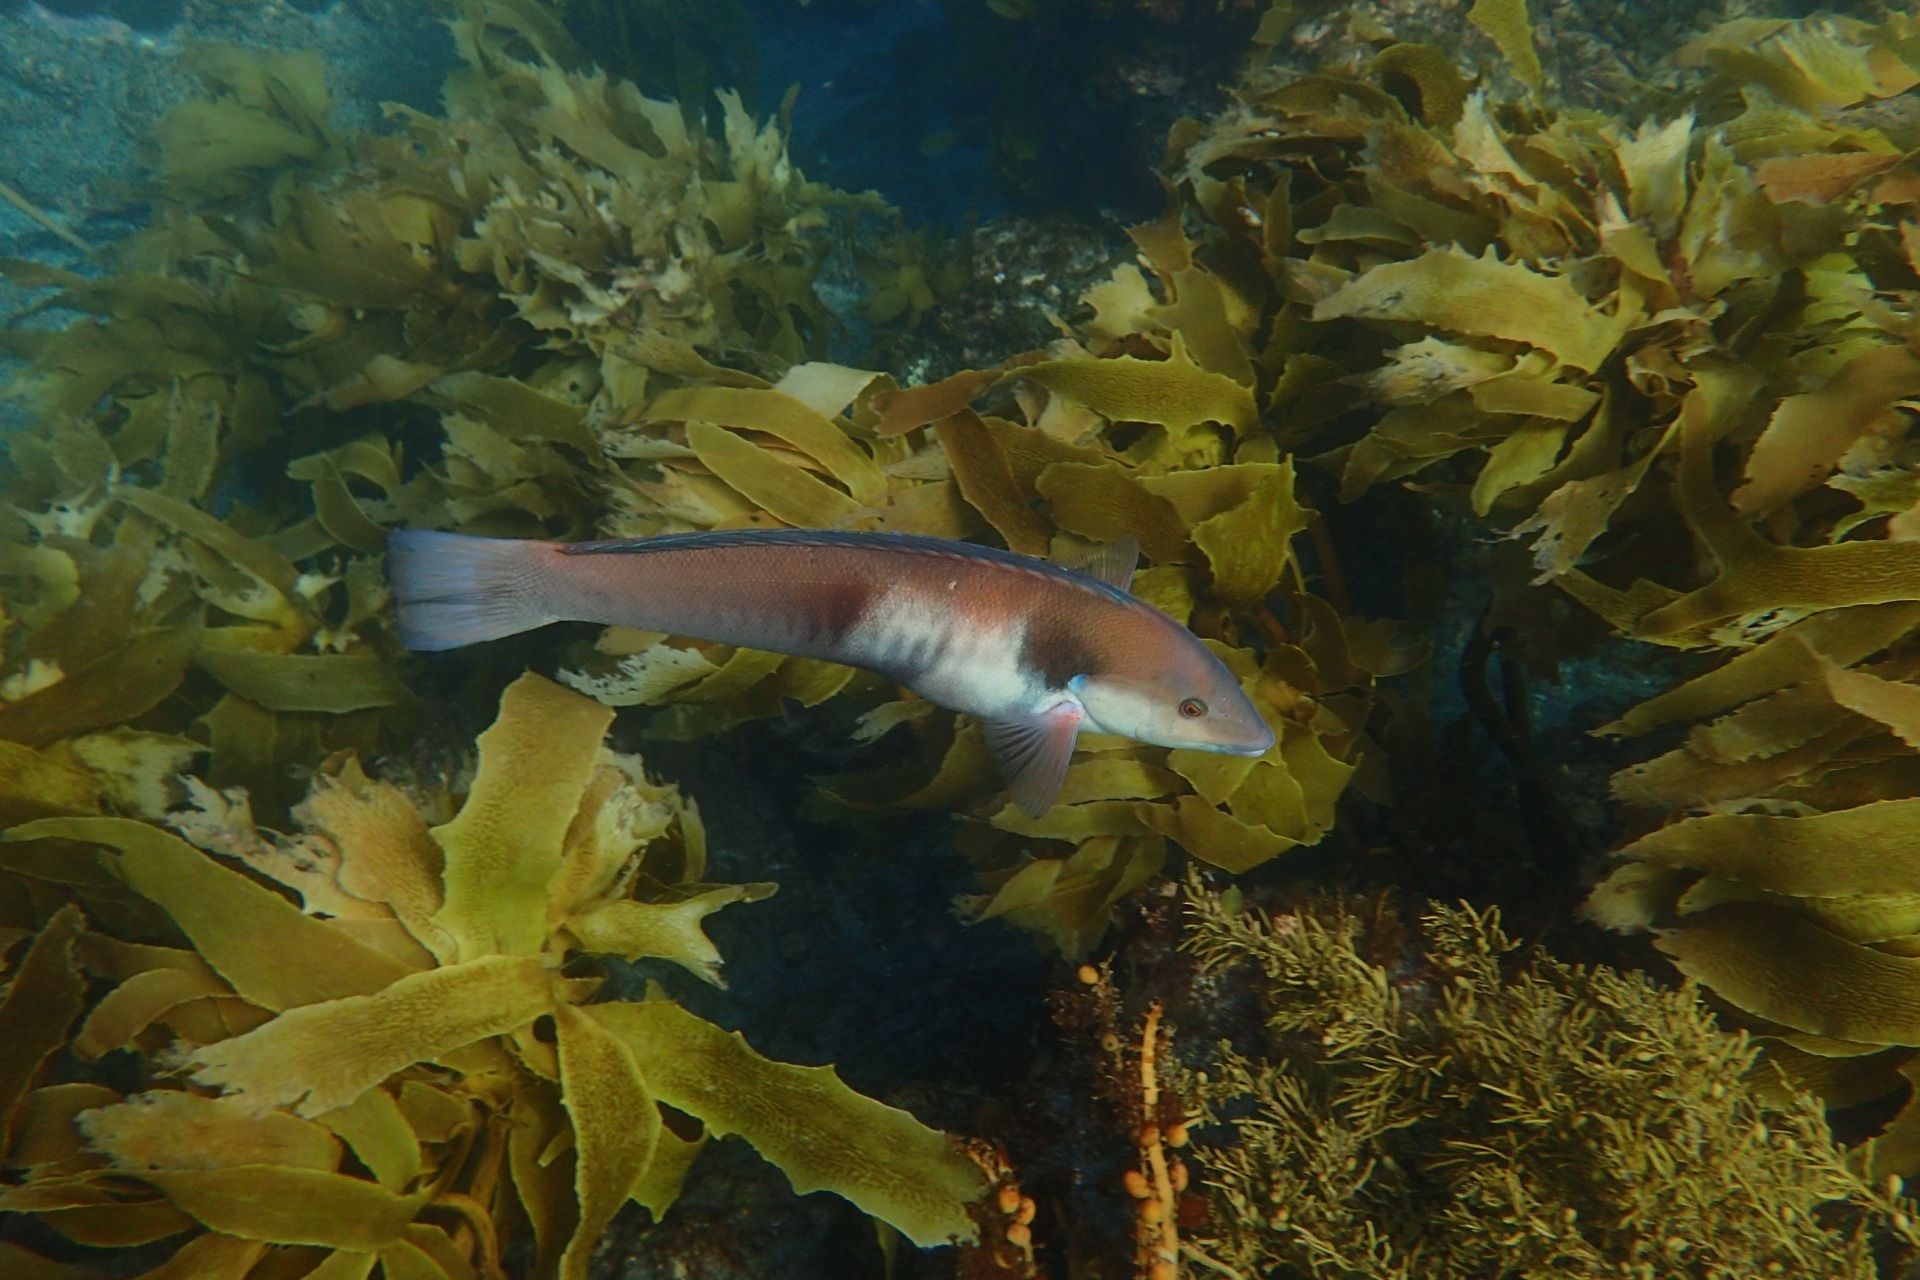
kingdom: Animalia
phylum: Chordata
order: Perciformes
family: Labridae
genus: Coris
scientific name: Coris sandeyeri
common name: Sandager's wrasse
